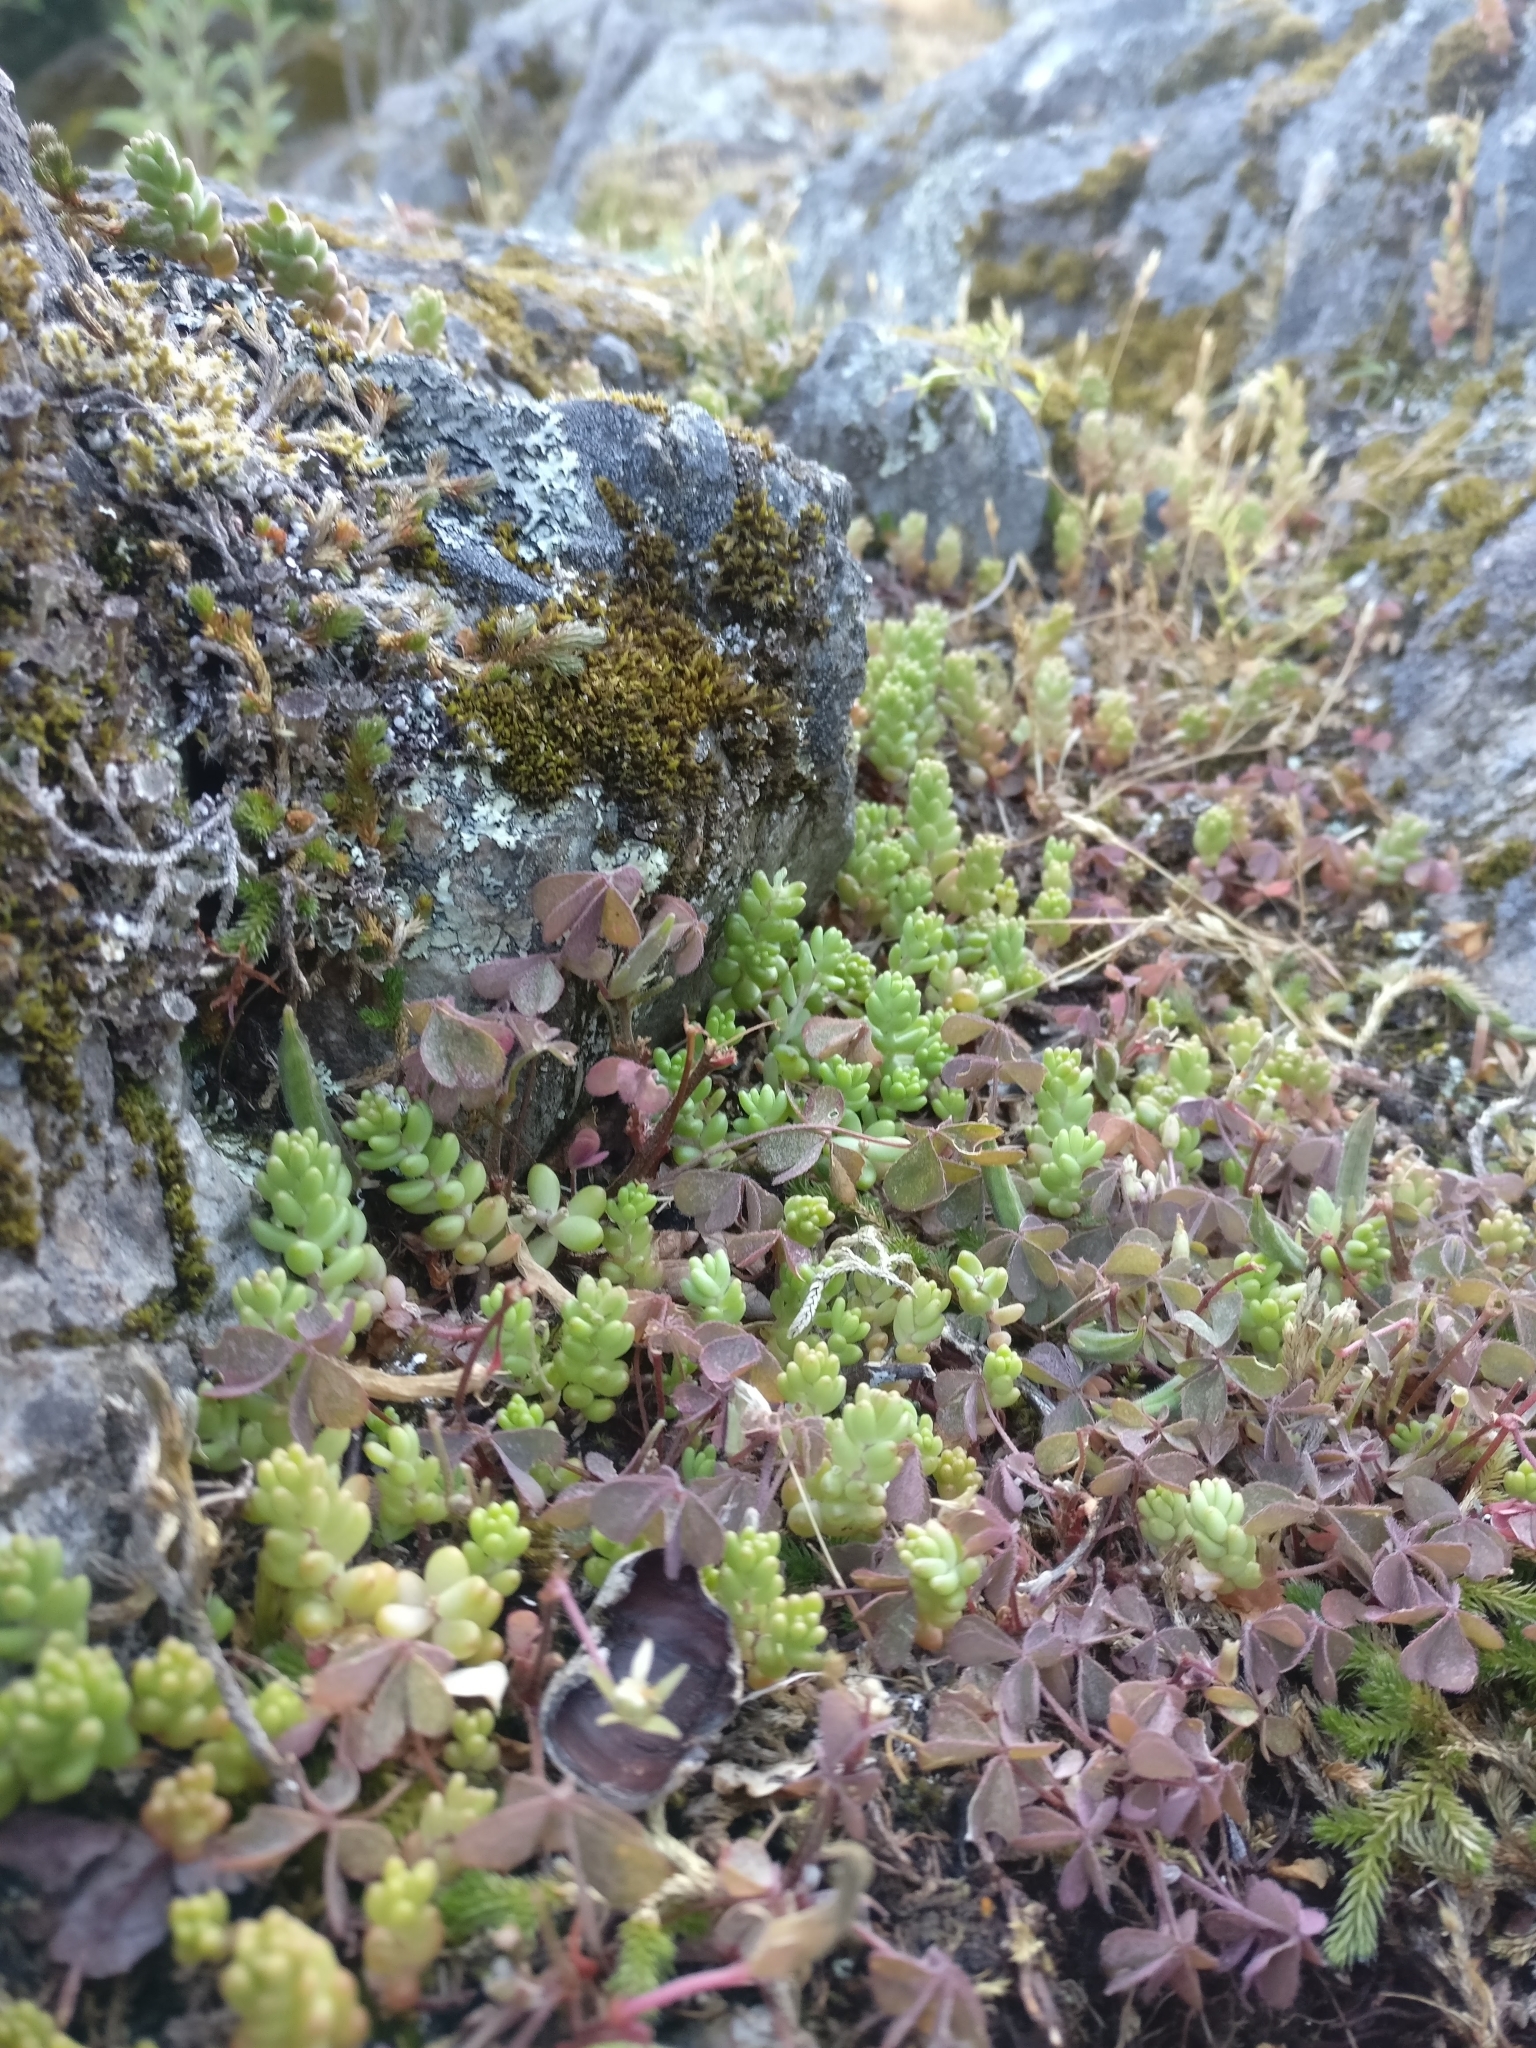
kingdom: Plantae
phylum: Tracheophyta
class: Magnoliopsida
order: Saxifragales
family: Crassulaceae
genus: Sedum
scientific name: Sedum album
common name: White stonecrop
